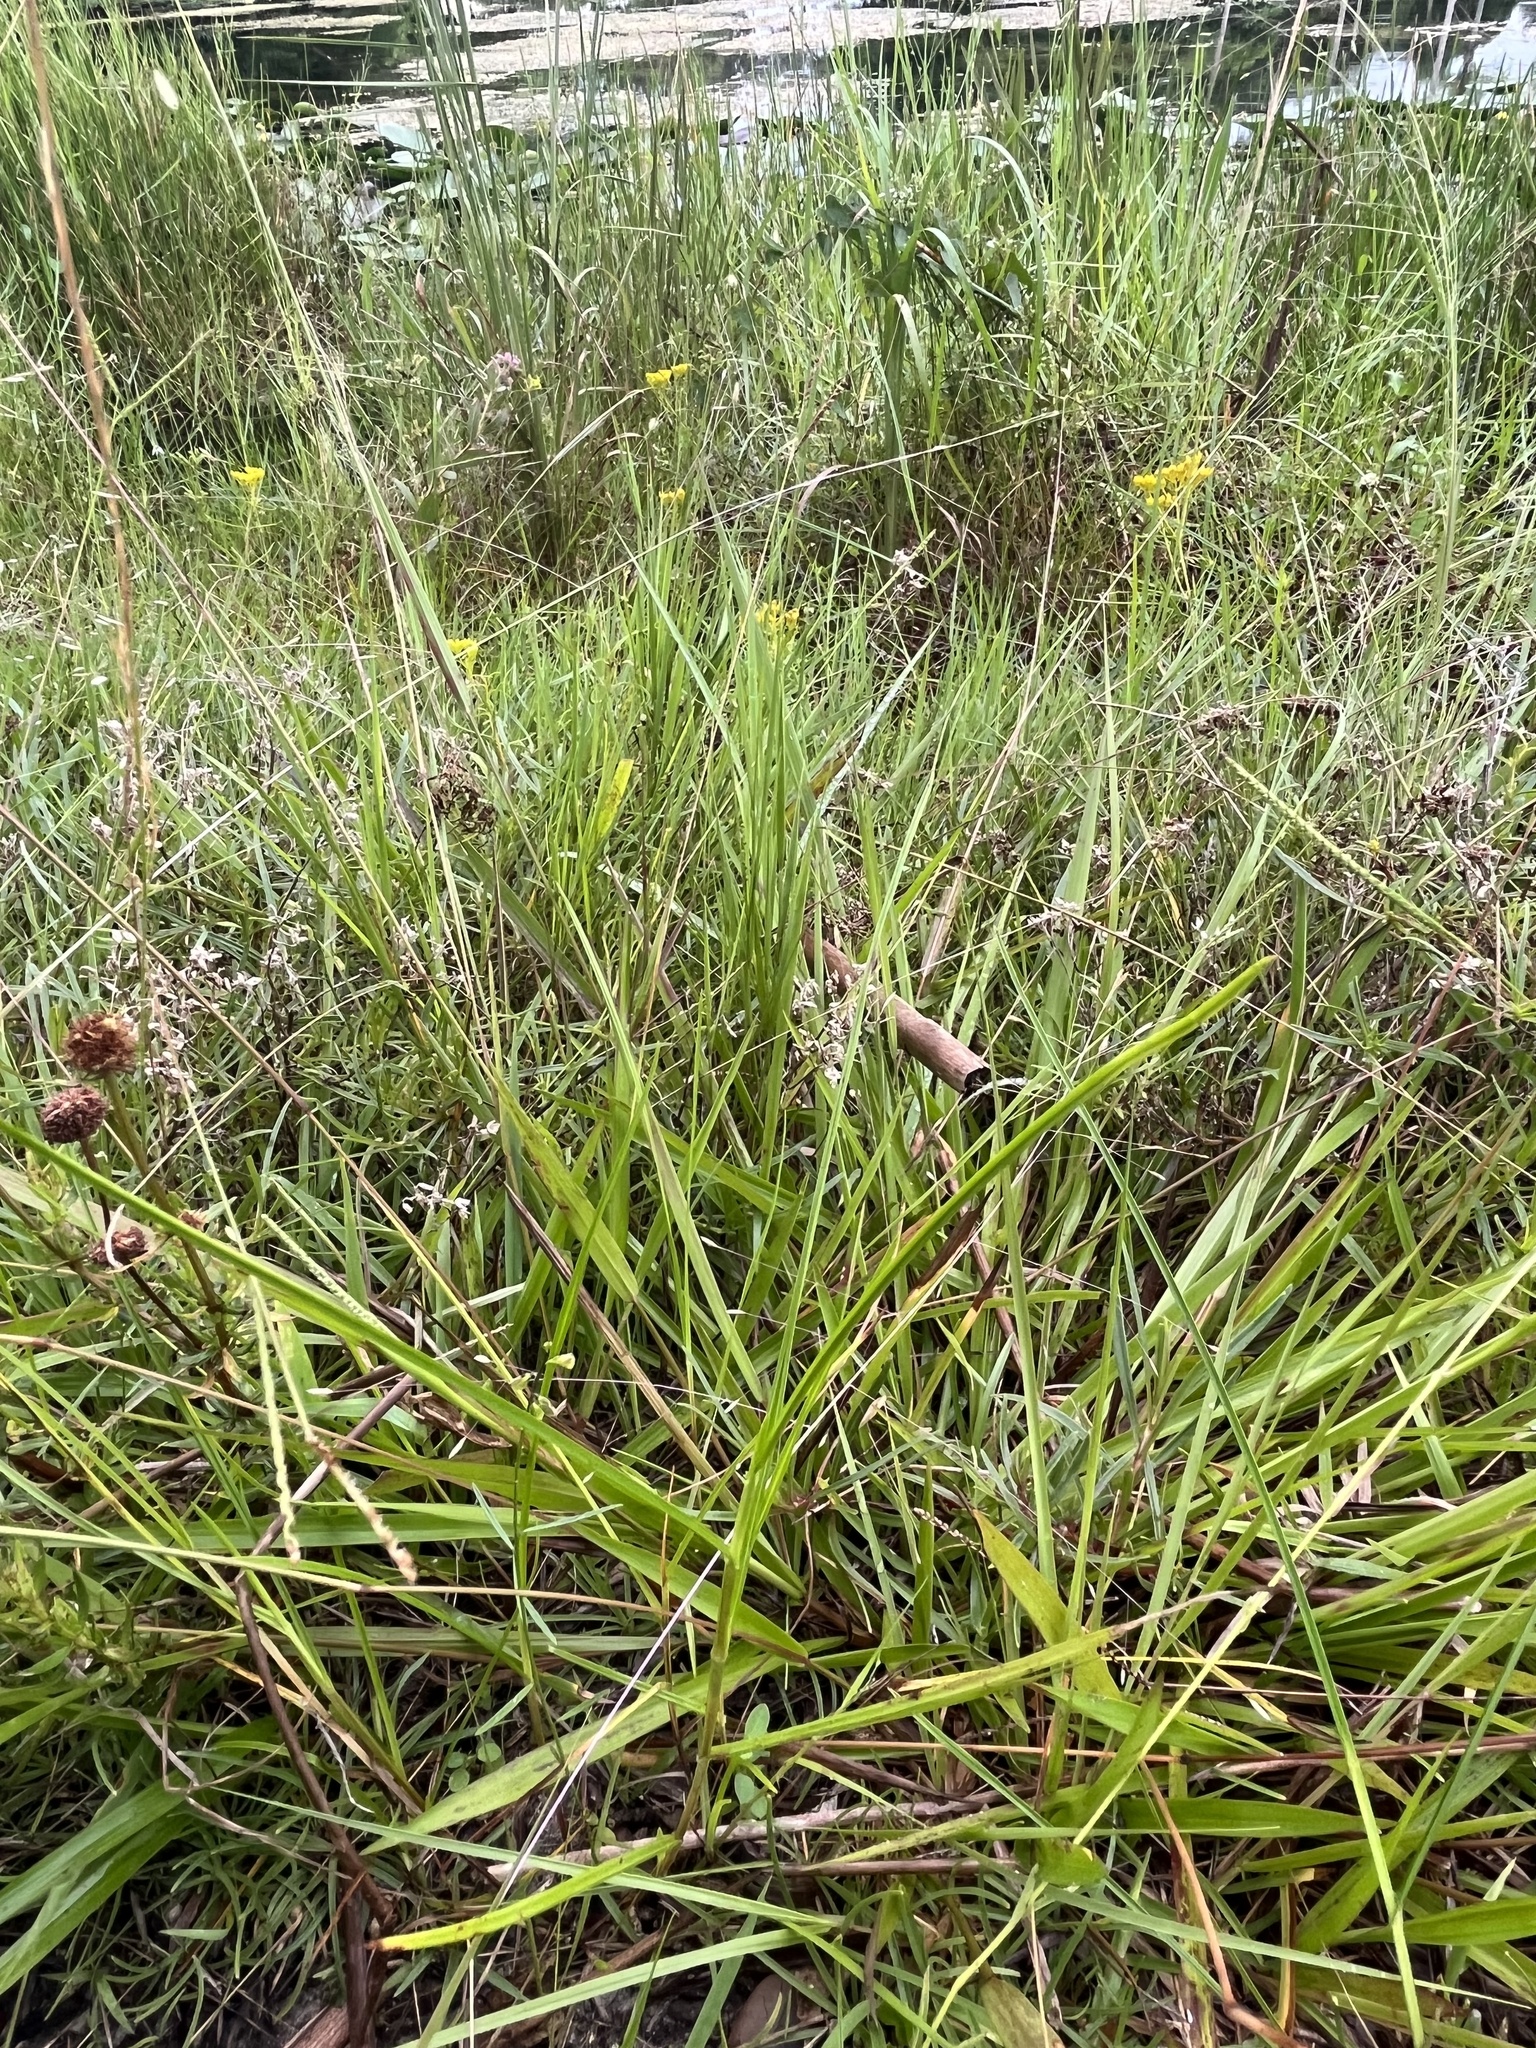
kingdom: Plantae
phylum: Tracheophyta
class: Liliopsida
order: Poales
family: Poaceae
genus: Eragrostis
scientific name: Eragrostis elliottii
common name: Elliott's love grass
